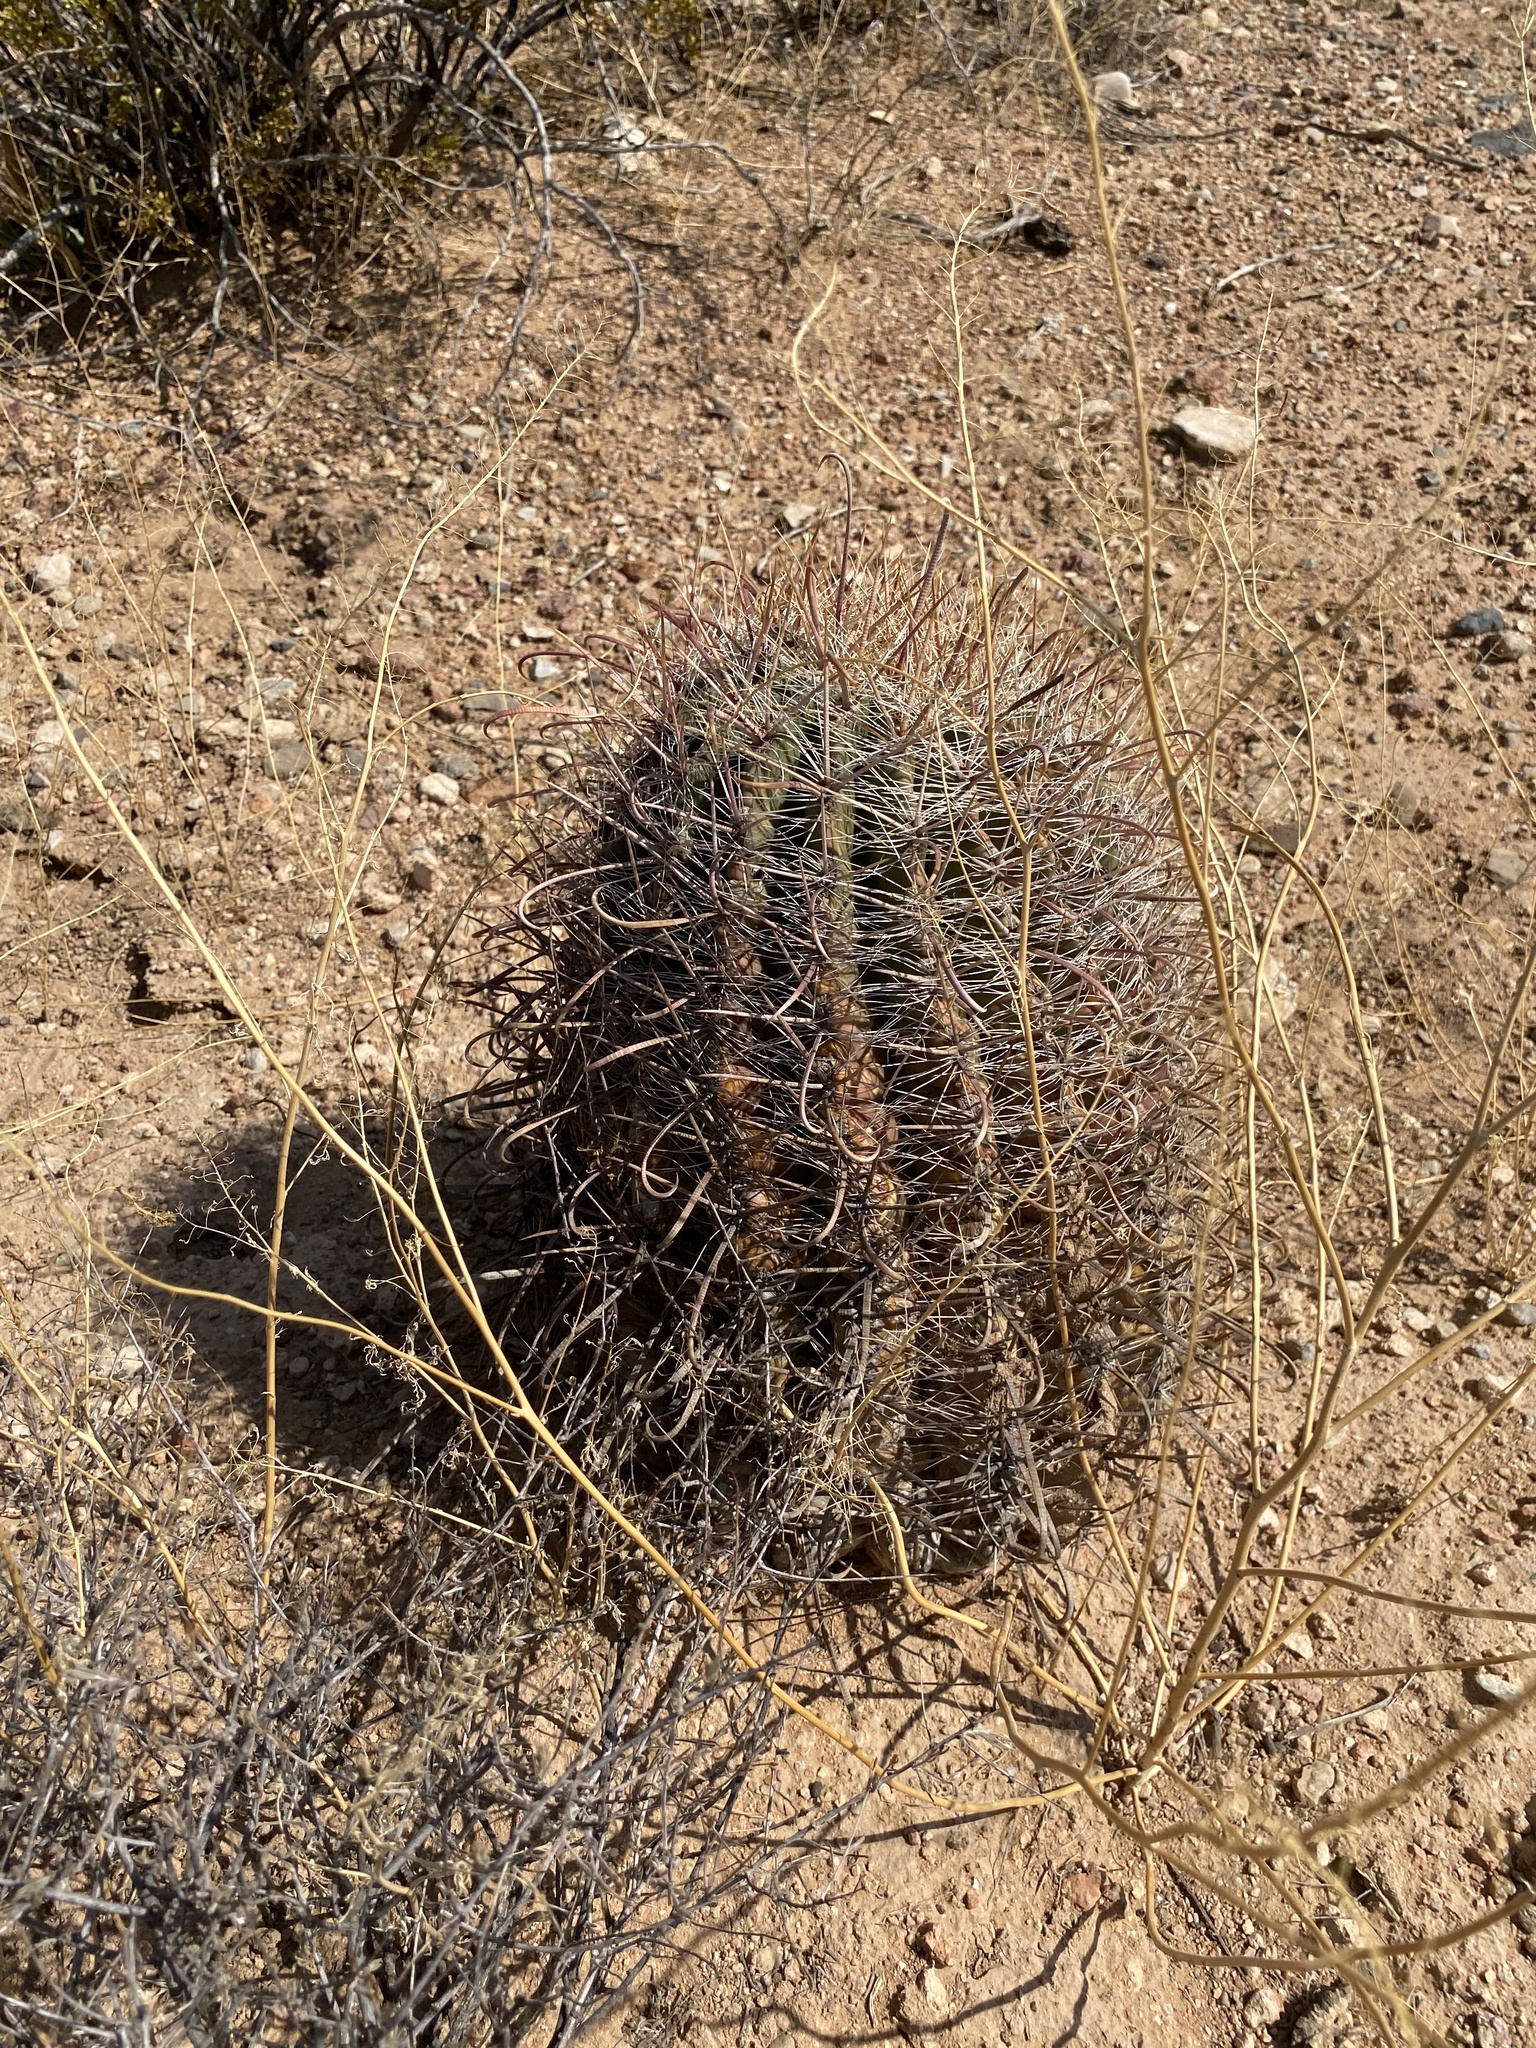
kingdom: Plantae
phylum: Tracheophyta
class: Magnoliopsida
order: Caryophyllales
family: Cactaceae
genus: Ferocactus
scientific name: Ferocactus wislizeni
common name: Candy barrel cactus
